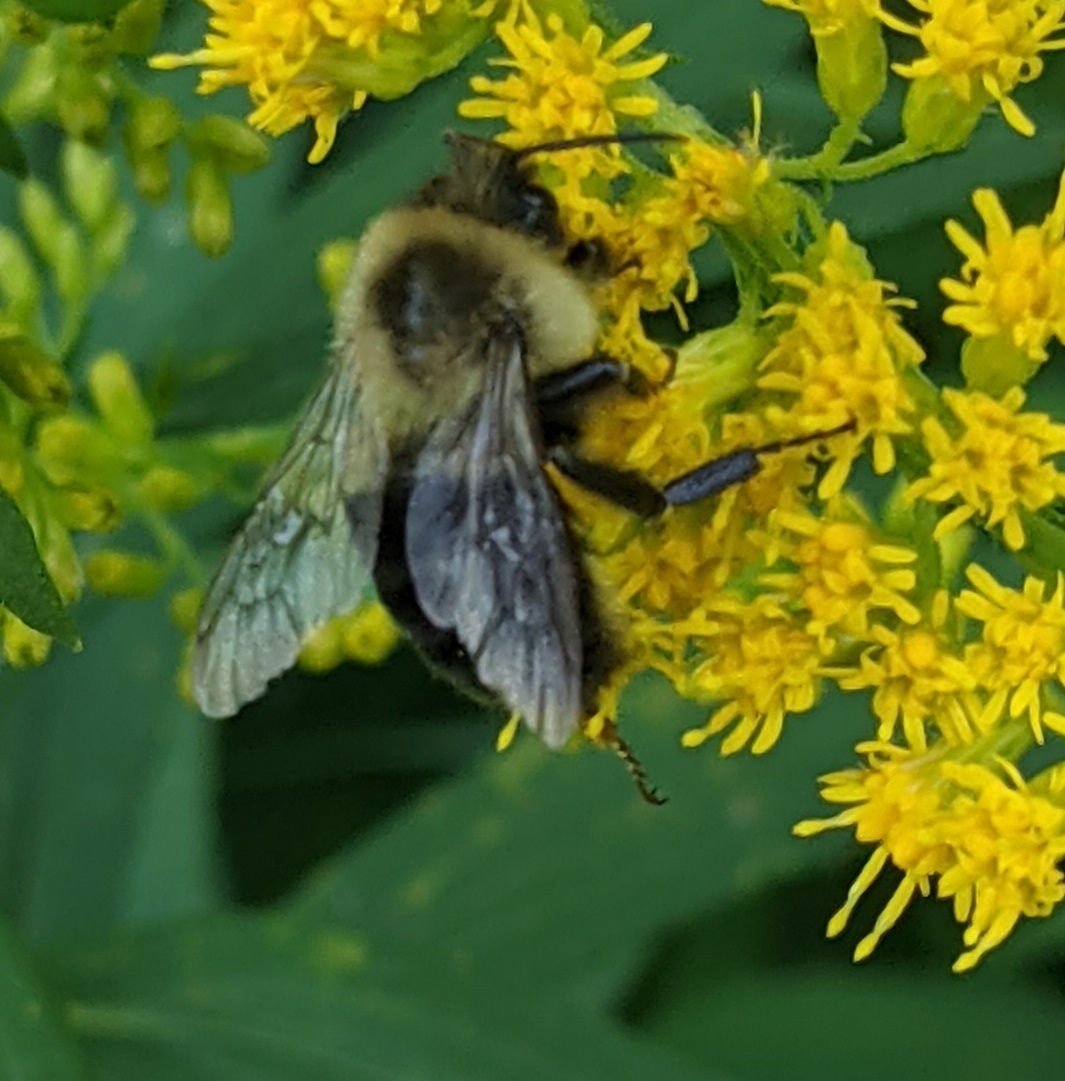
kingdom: Animalia
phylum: Arthropoda
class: Insecta
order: Hymenoptera
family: Apidae
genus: Bombus
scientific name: Bombus impatiens
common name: Common eastern bumble bee
